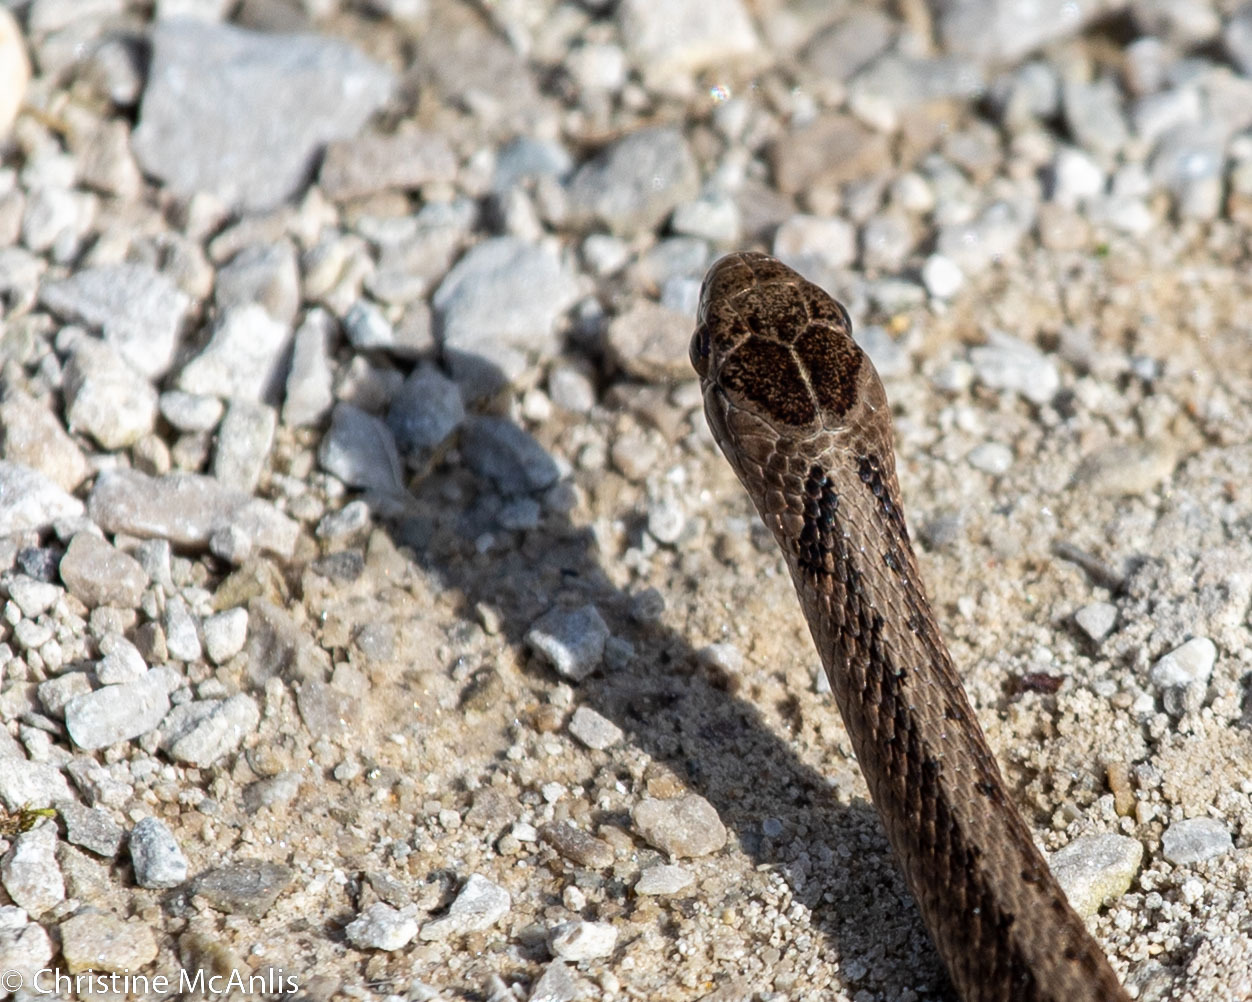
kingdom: Animalia
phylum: Chordata
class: Squamata
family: Colubridae
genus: Storeria
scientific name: Storeria dekayi
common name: (dekay’s) brown snake
